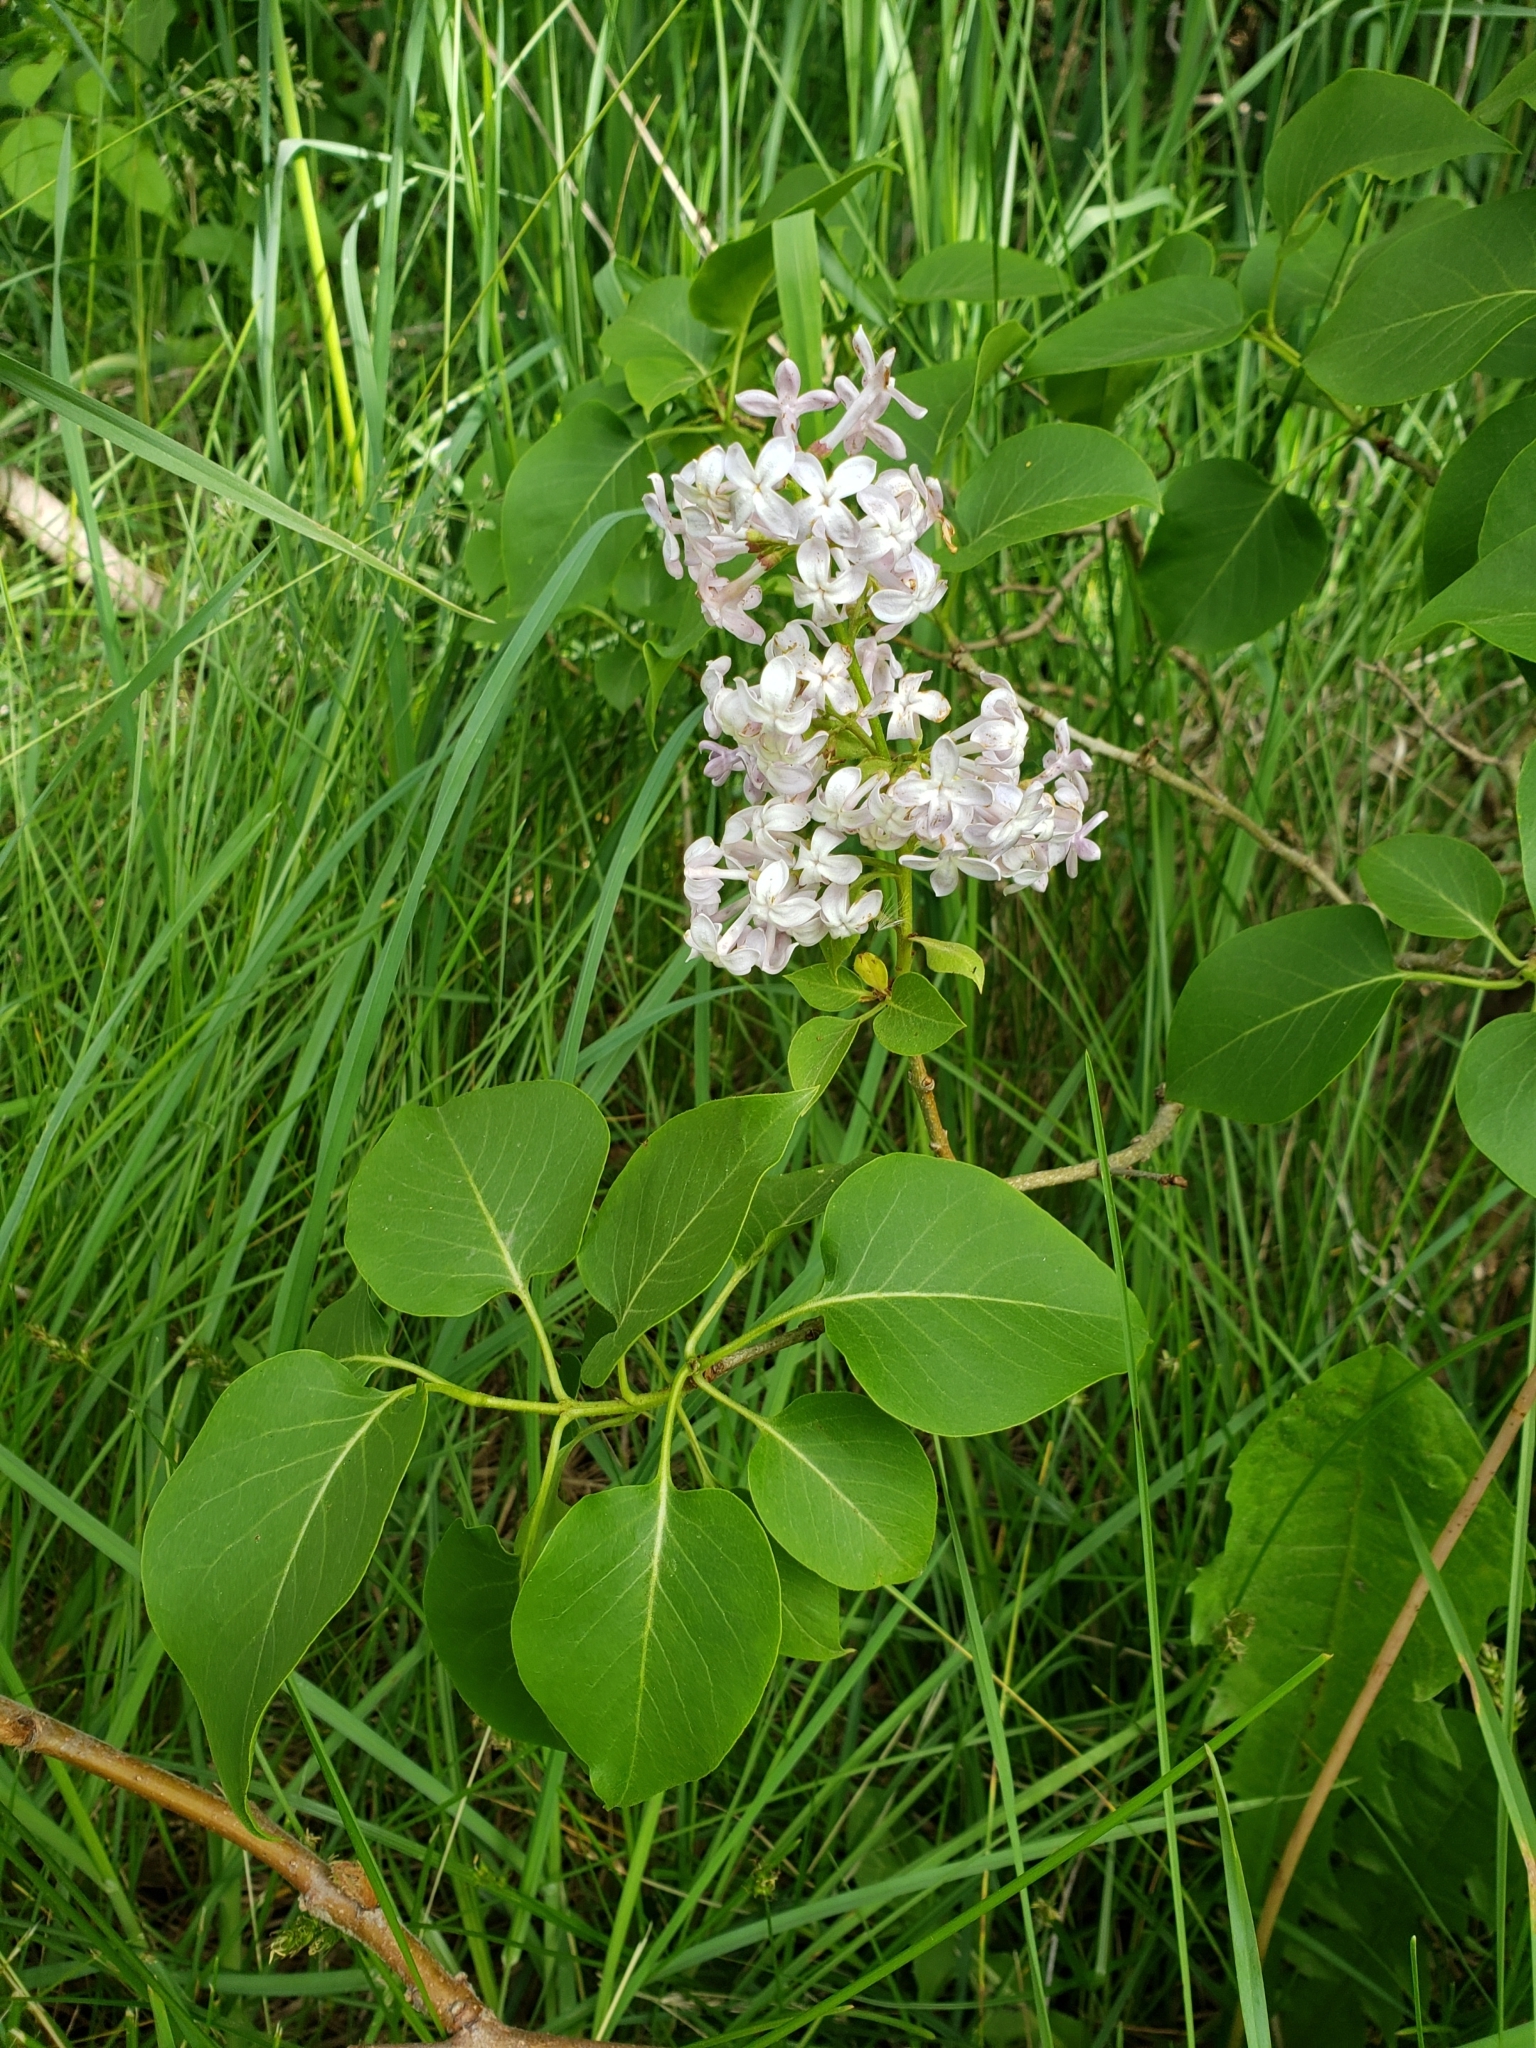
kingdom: Plantae
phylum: Tracheophyta
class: Magnoliopsida
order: Lamiales
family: Oleaceae
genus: Syringa
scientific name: Syringa vulgaris
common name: Common lilac
